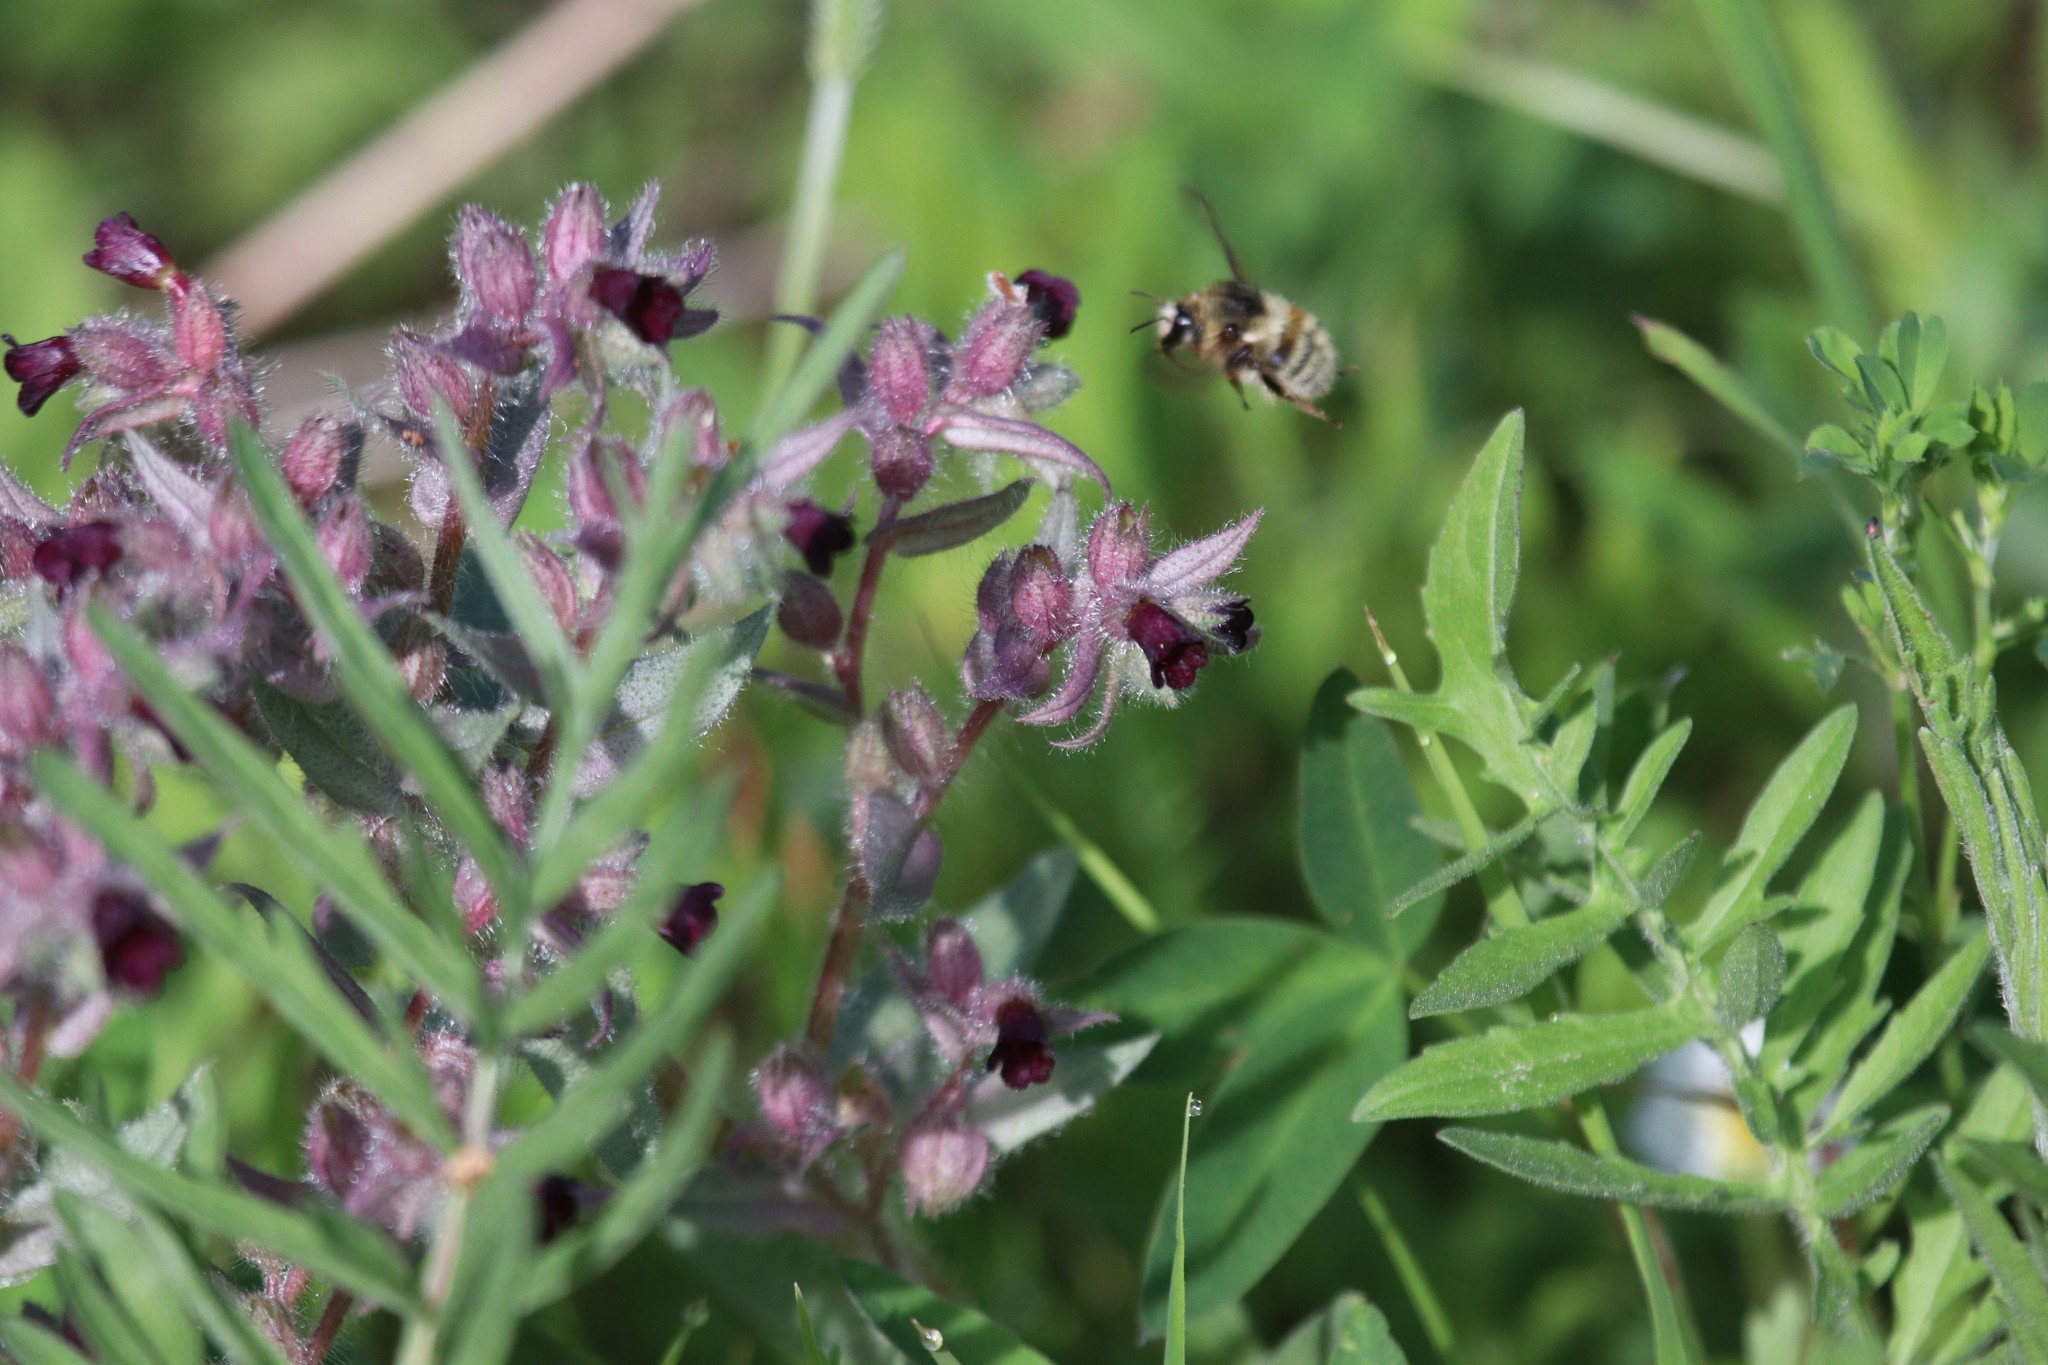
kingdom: Plantae
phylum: Tracheophyta
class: Magnoliopsida
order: Boraginales
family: Boraginaceae
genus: Nonea
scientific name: Nonea pulla
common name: Brown nonea
